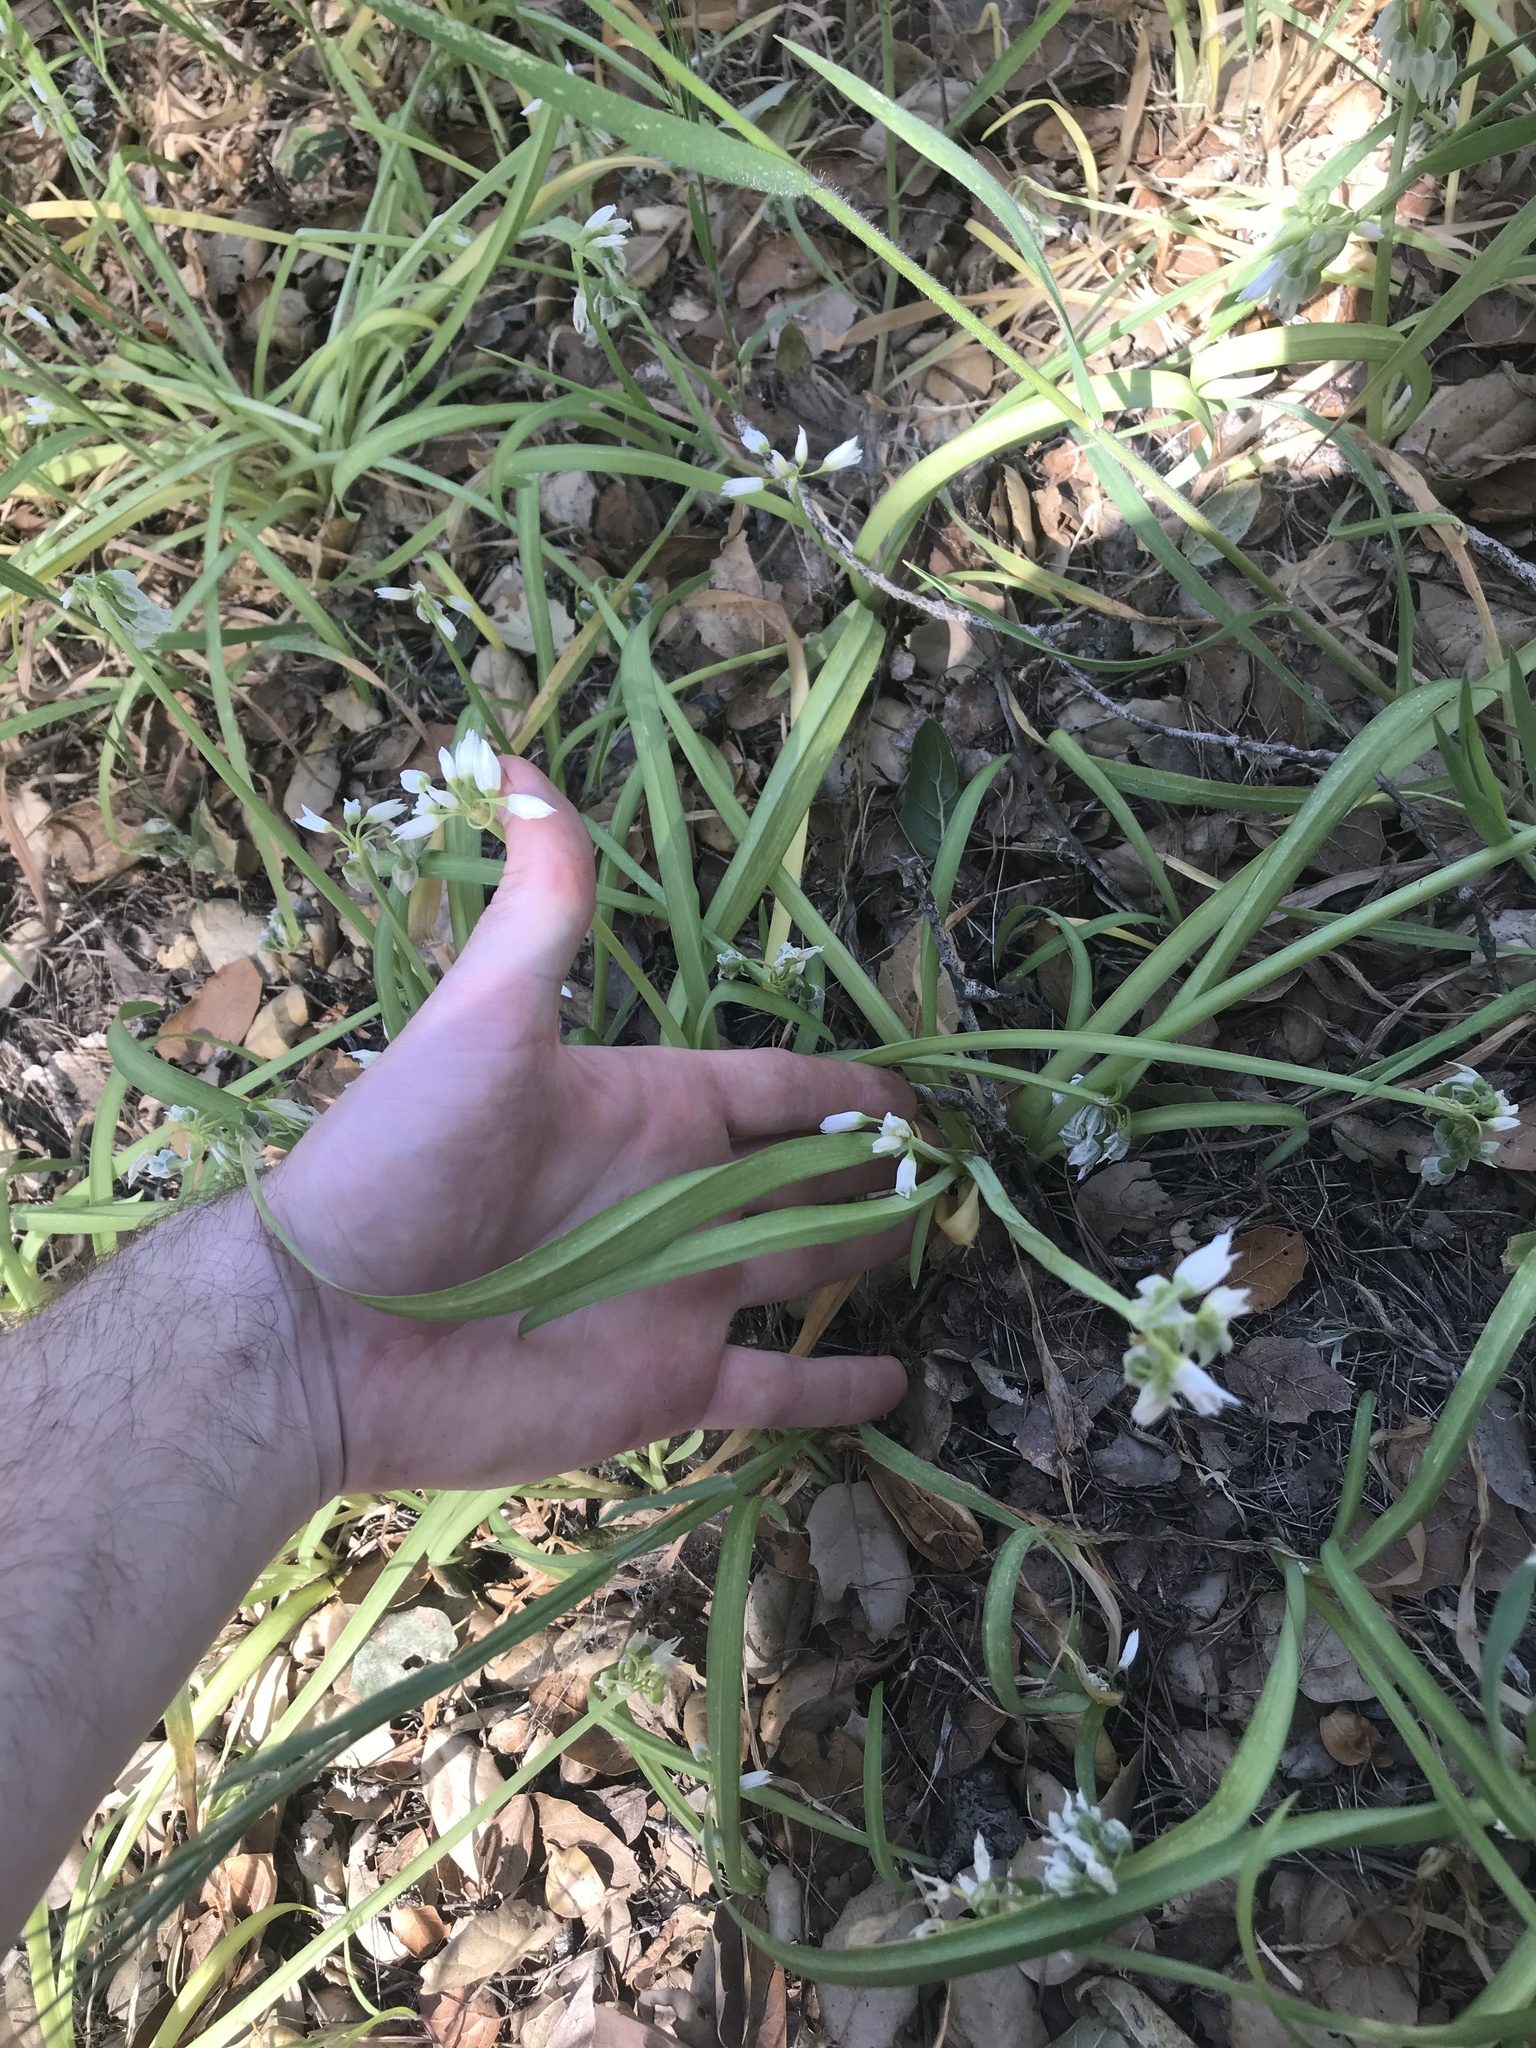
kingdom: Plantae
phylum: Tracheophyta
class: Liliopsida
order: Asparagales
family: Amaryllidaceae
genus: Allium
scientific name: Allium triquetrum
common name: Three-cornered garlic
